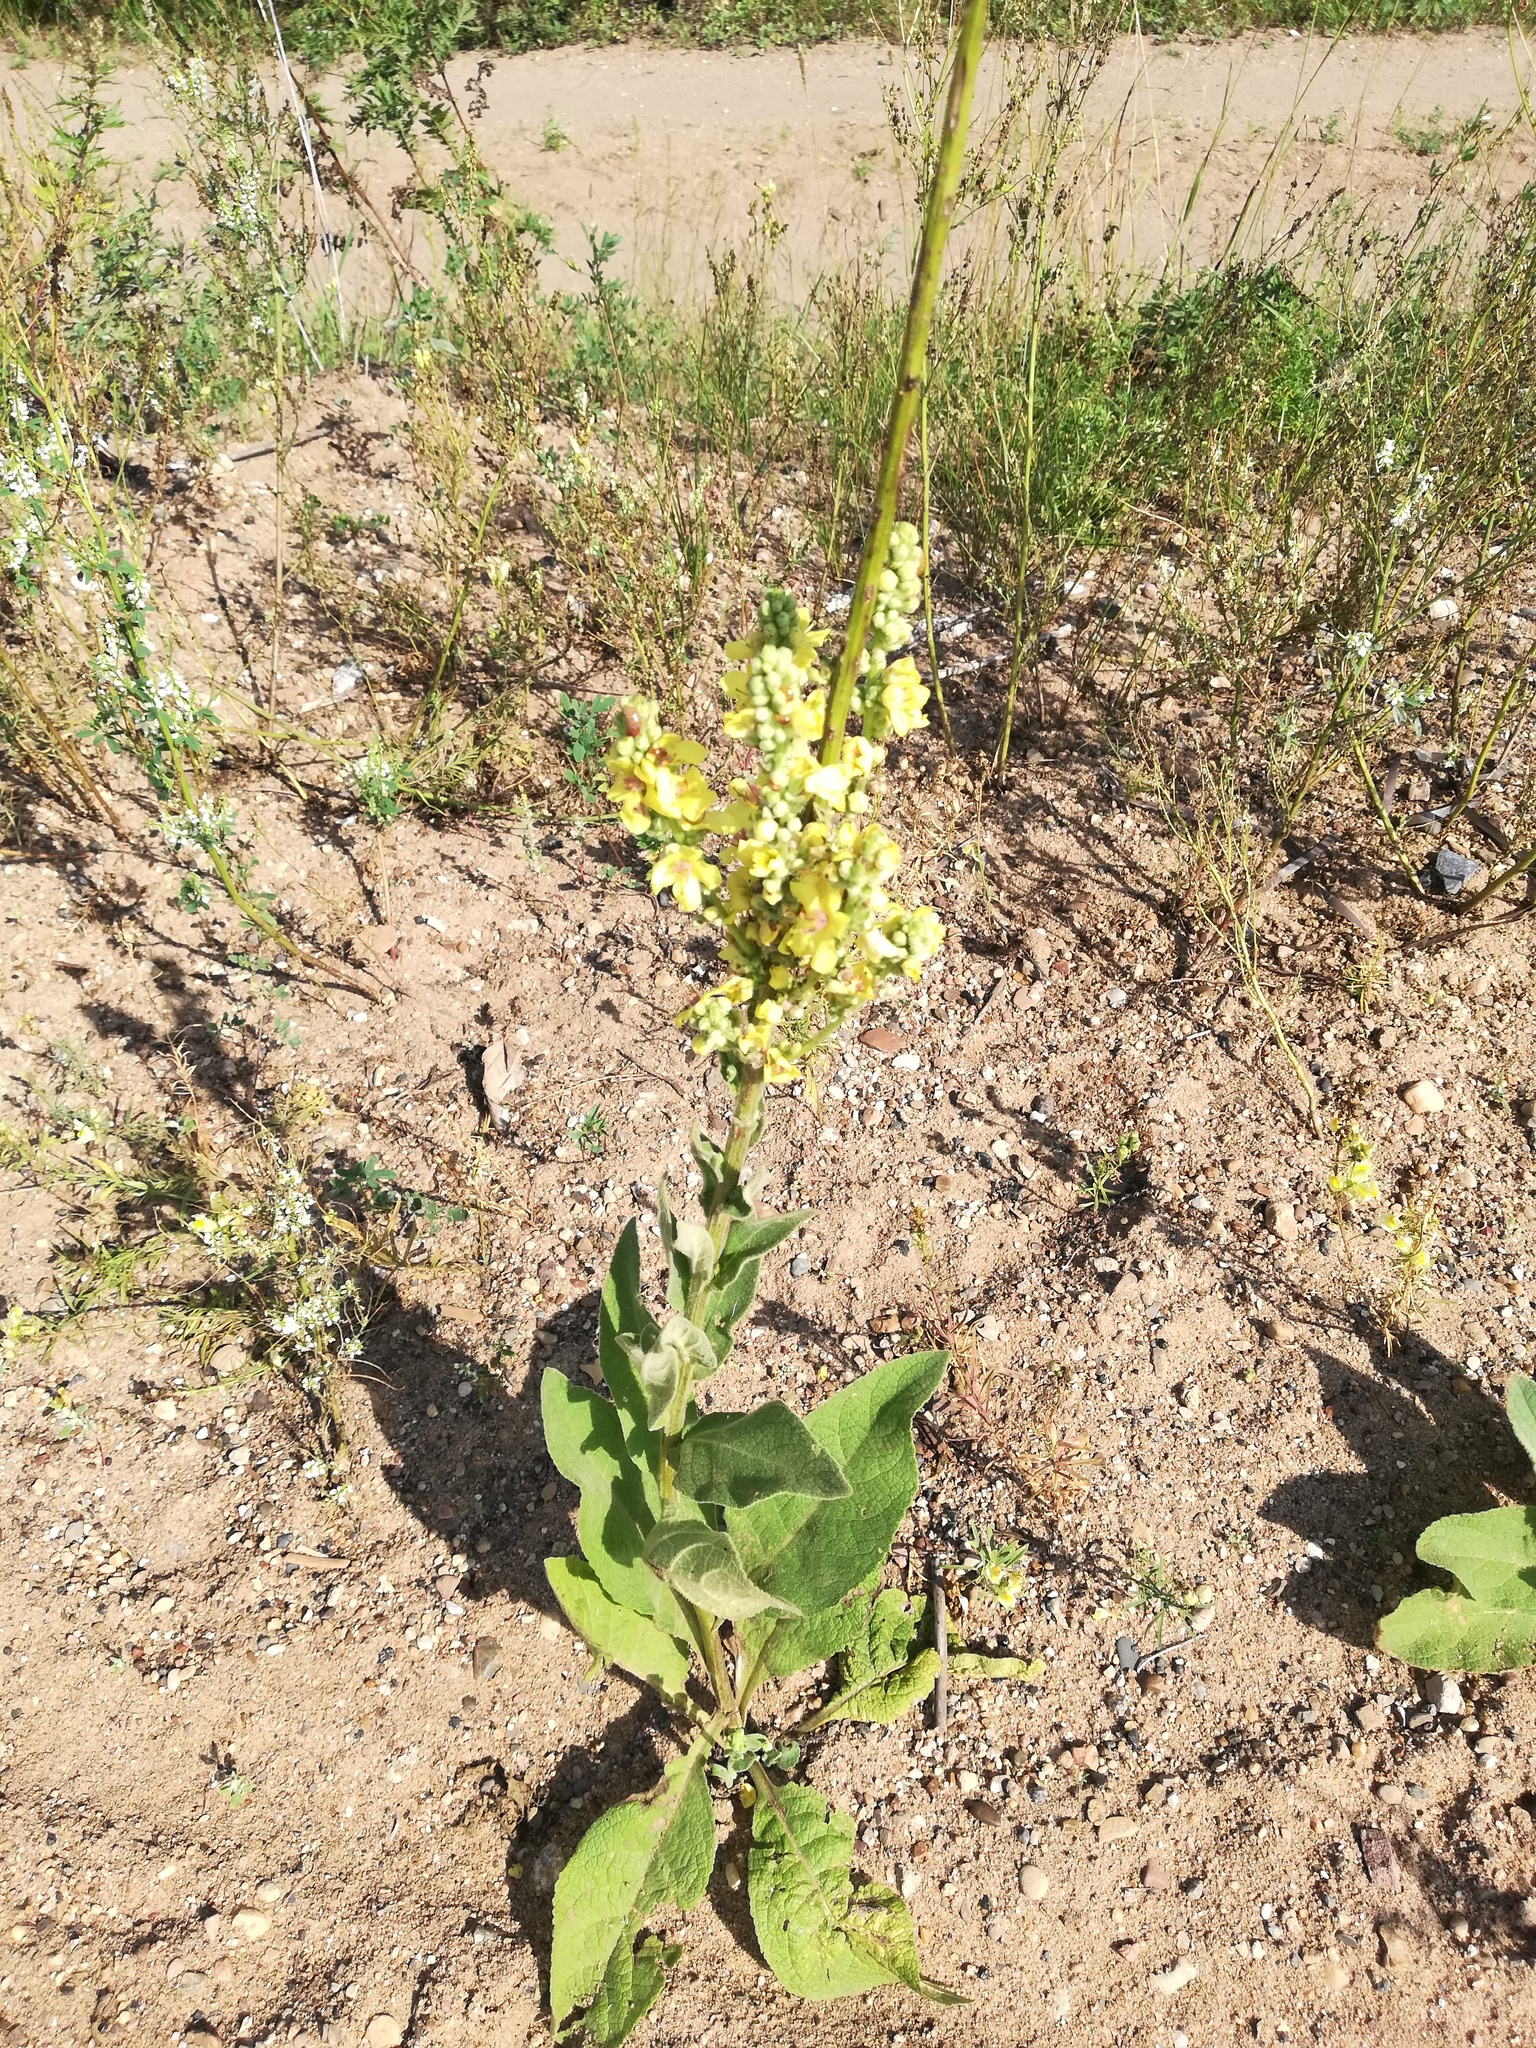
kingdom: Plantae
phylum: Tracheophyta
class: Magnoliopsida
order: Lamiales
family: Scrophulariaceae
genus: Verbascum
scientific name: Verbascum semialbum
